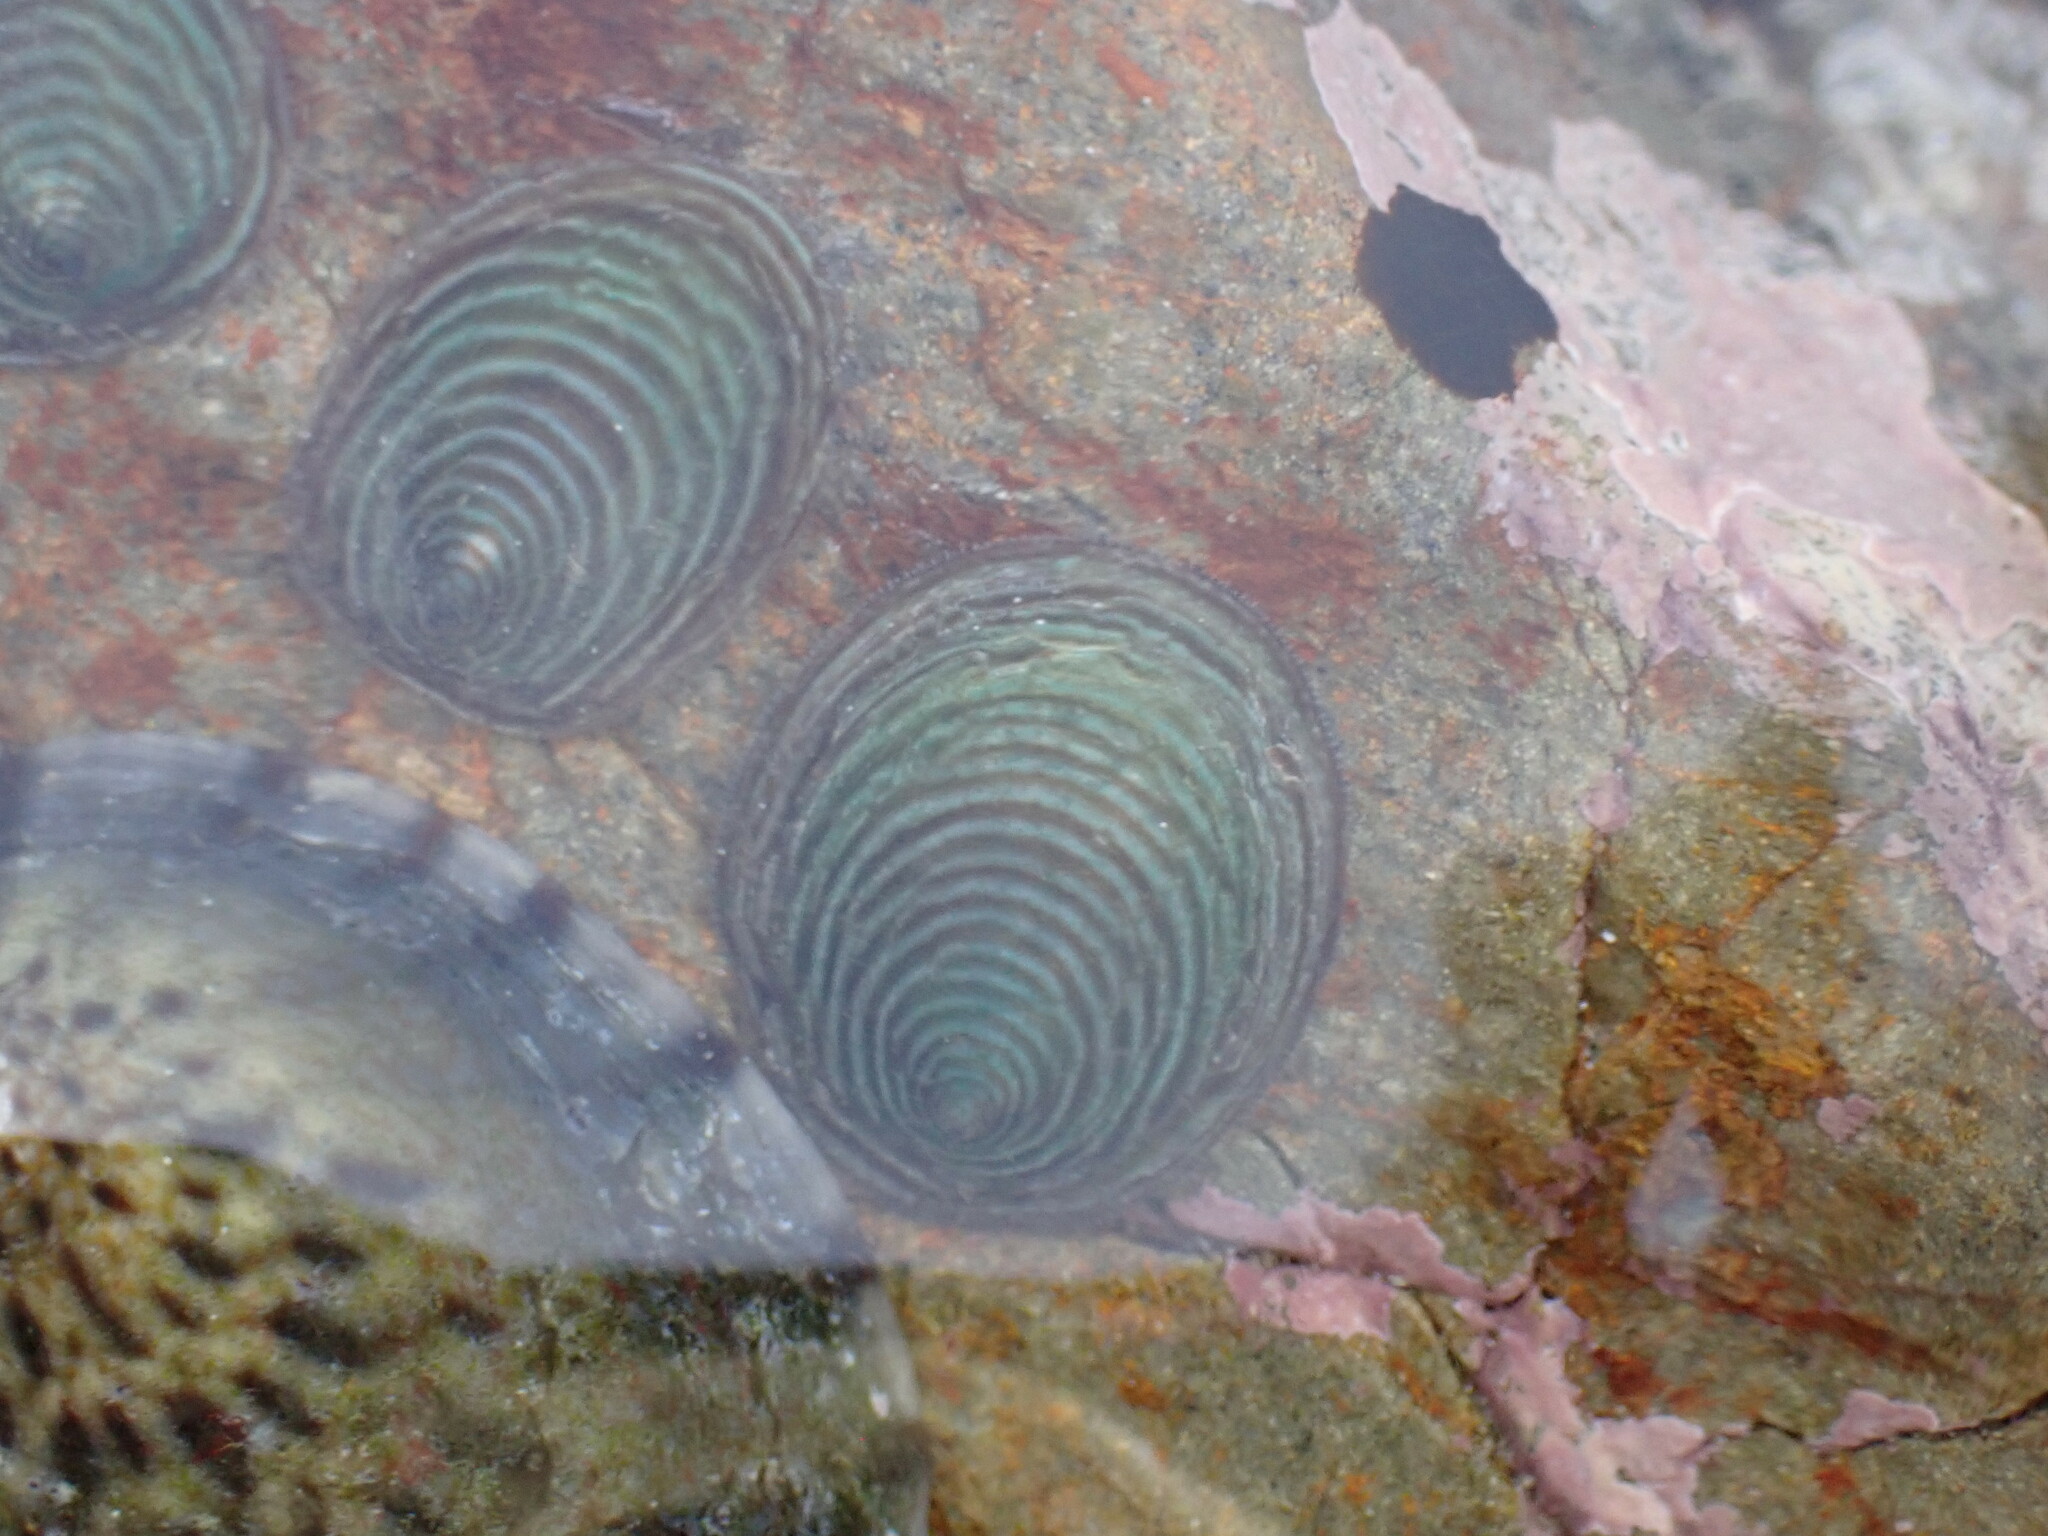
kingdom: Animalia
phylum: Mollusca
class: Gastropoda
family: Lottiidae
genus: Atalacmea
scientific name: Atalacmea fragilis
